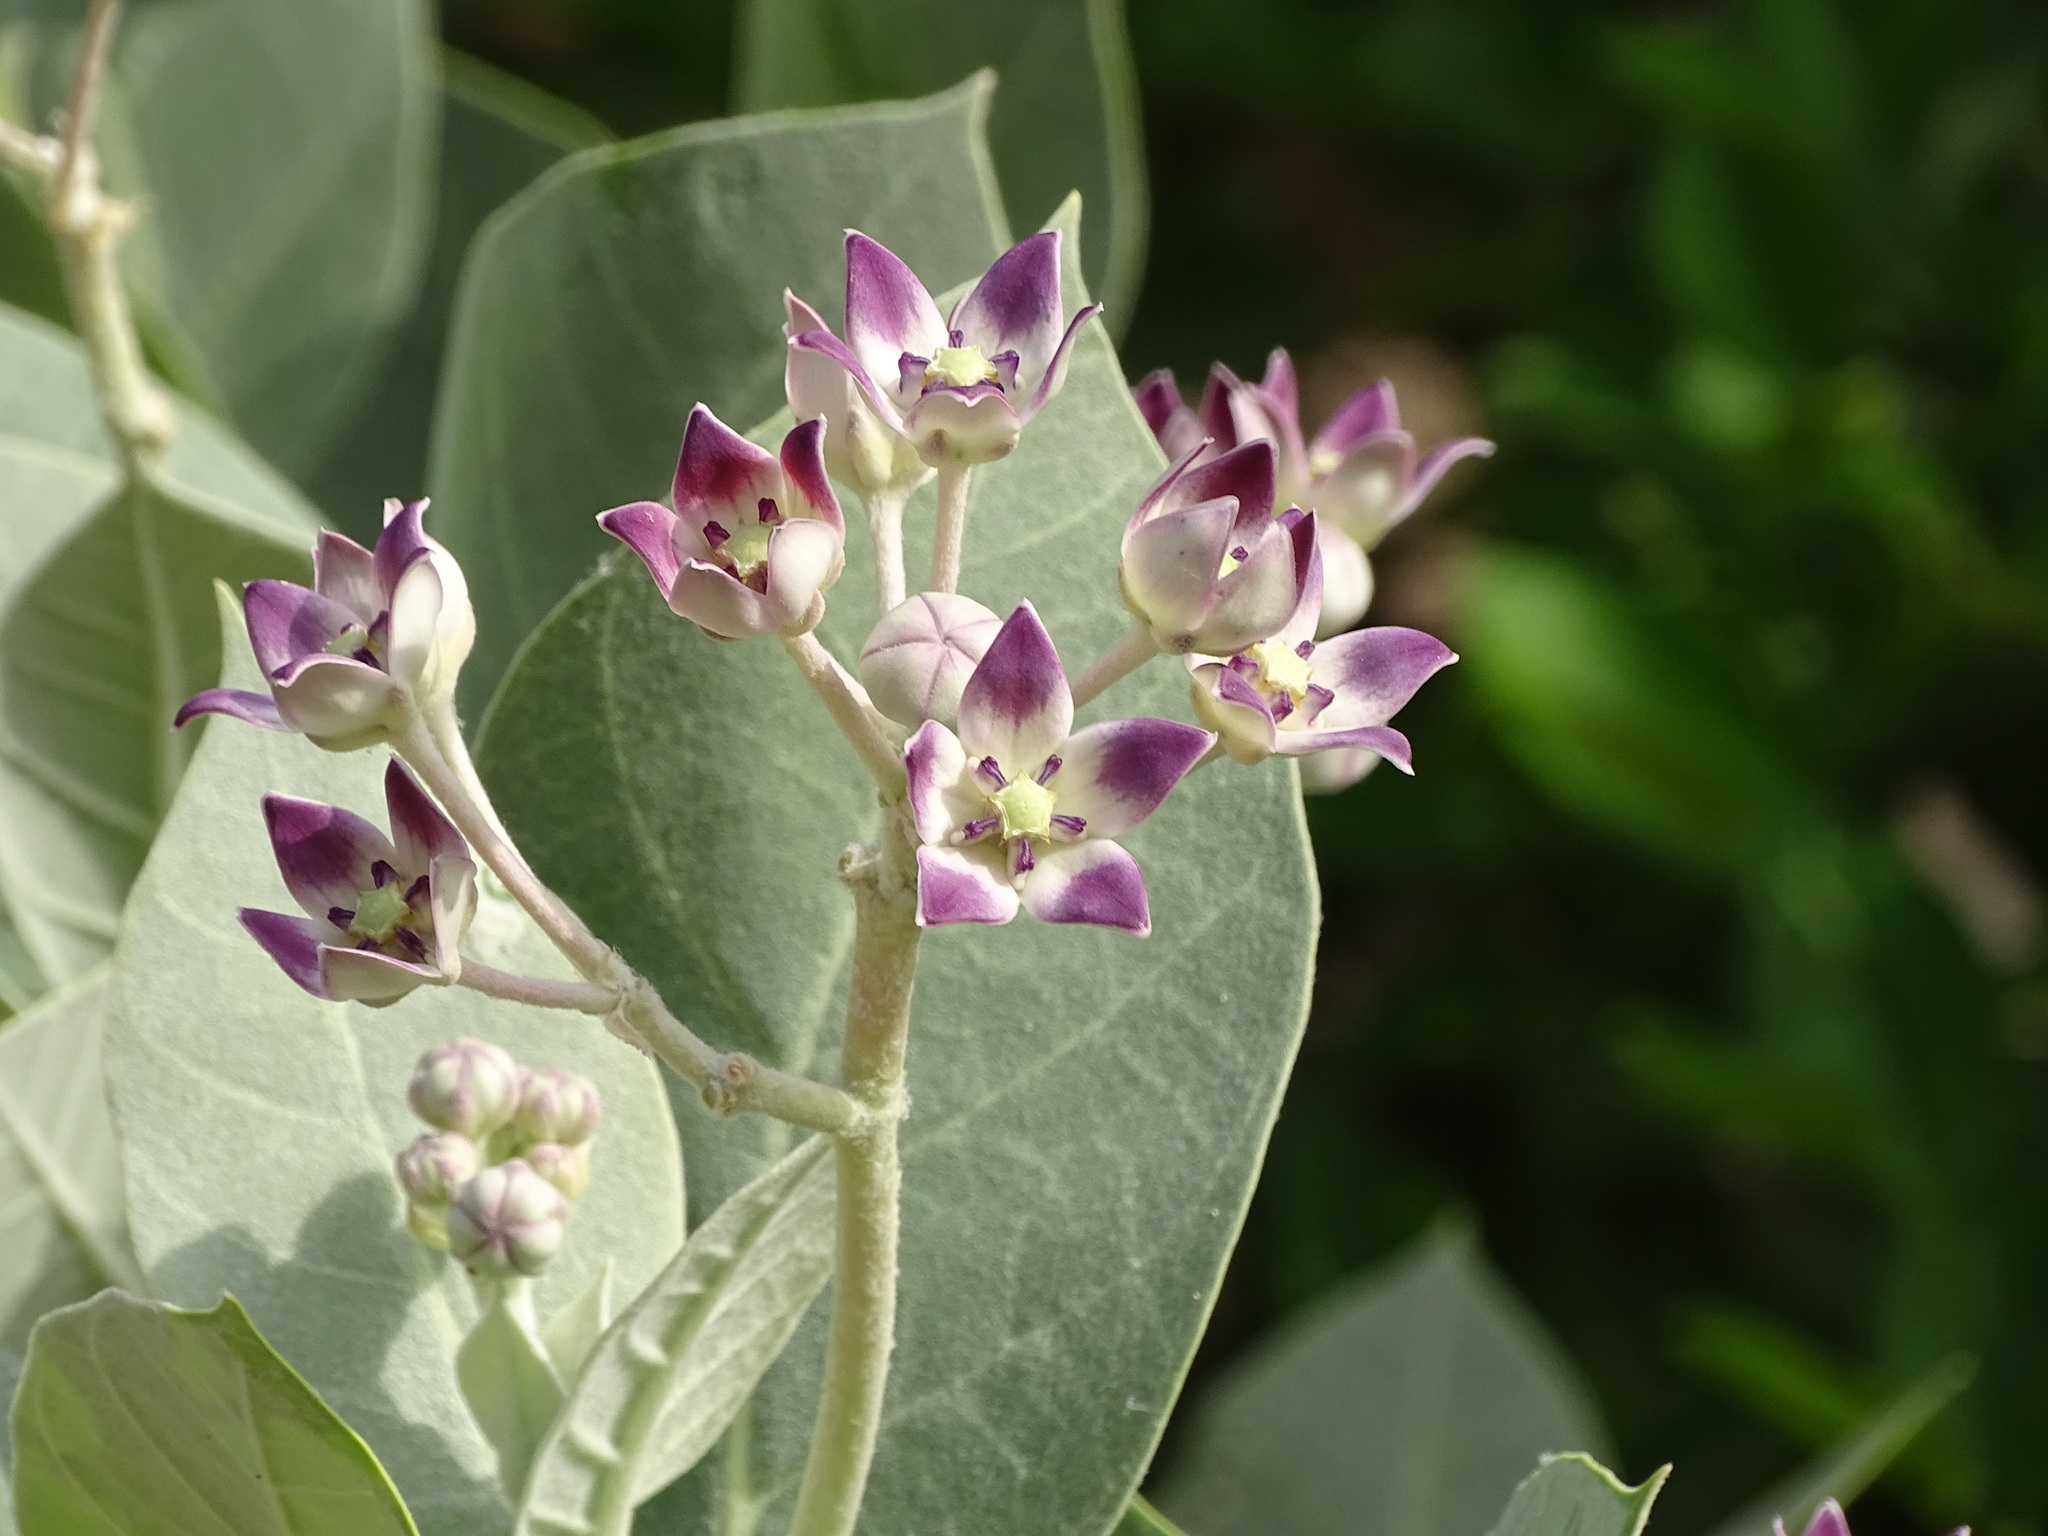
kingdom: Plantae
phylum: Tracheophyta
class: Magnoliopsida
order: Gentianales
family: Apocynaceae
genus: Calotropis
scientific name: Calotropis procera
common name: Roostertree
